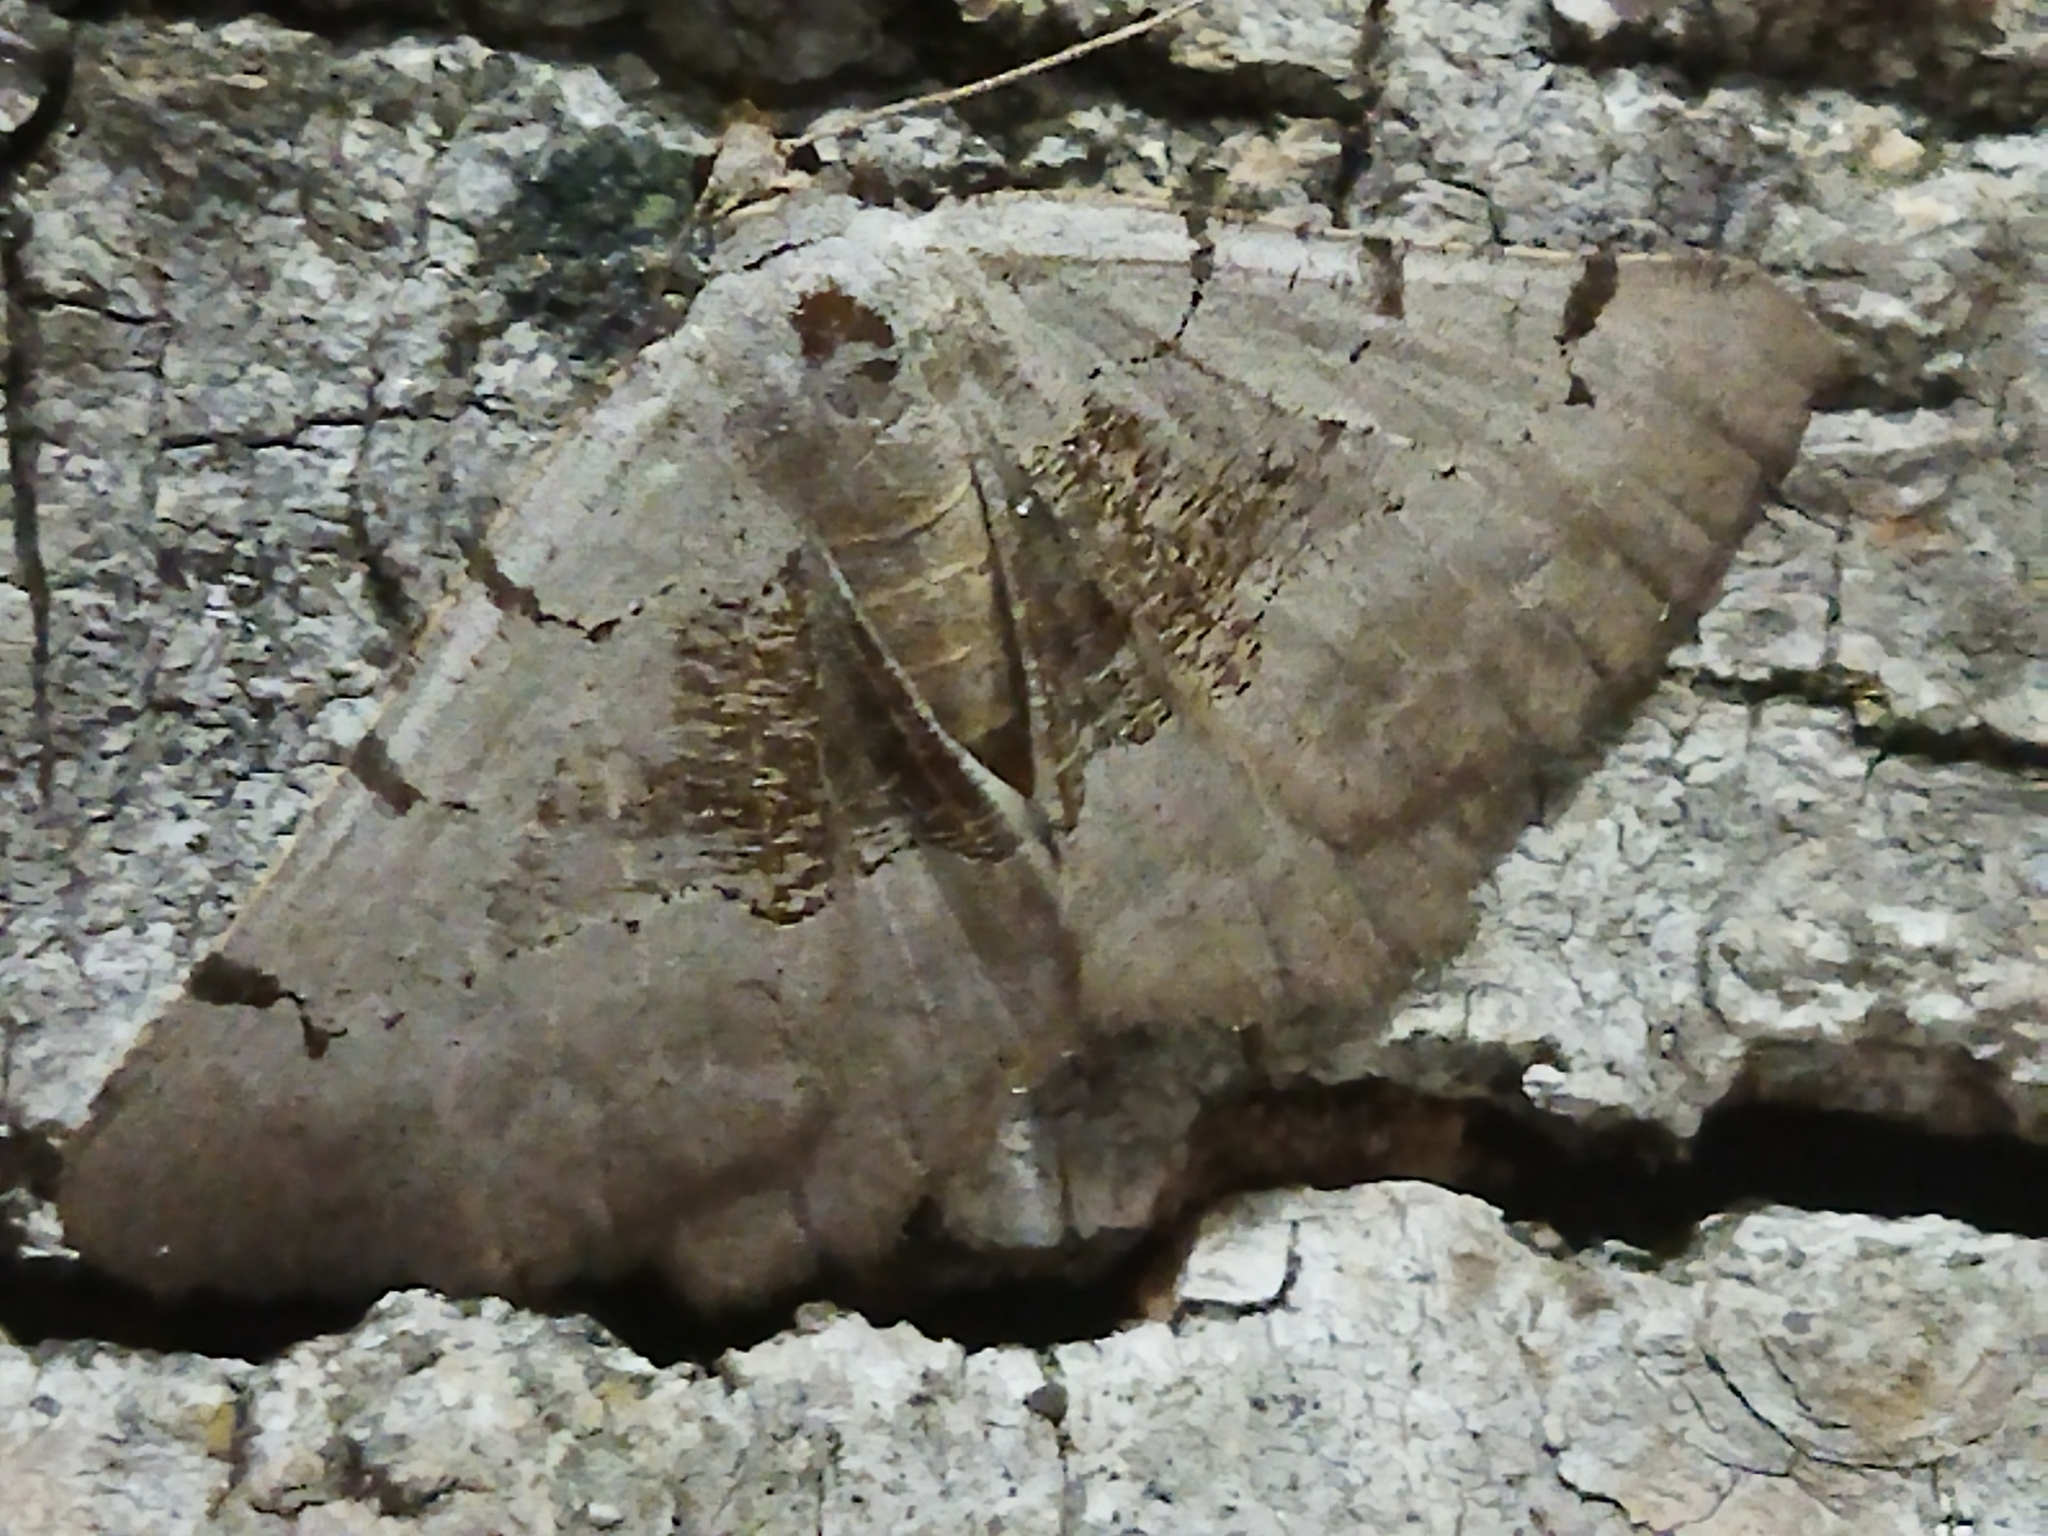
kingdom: Animalia
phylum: Arthropoda
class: Insecta
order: Lepidoptera
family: Geometridae
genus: Neognopharmia
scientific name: Neognopharmia stevenaria
